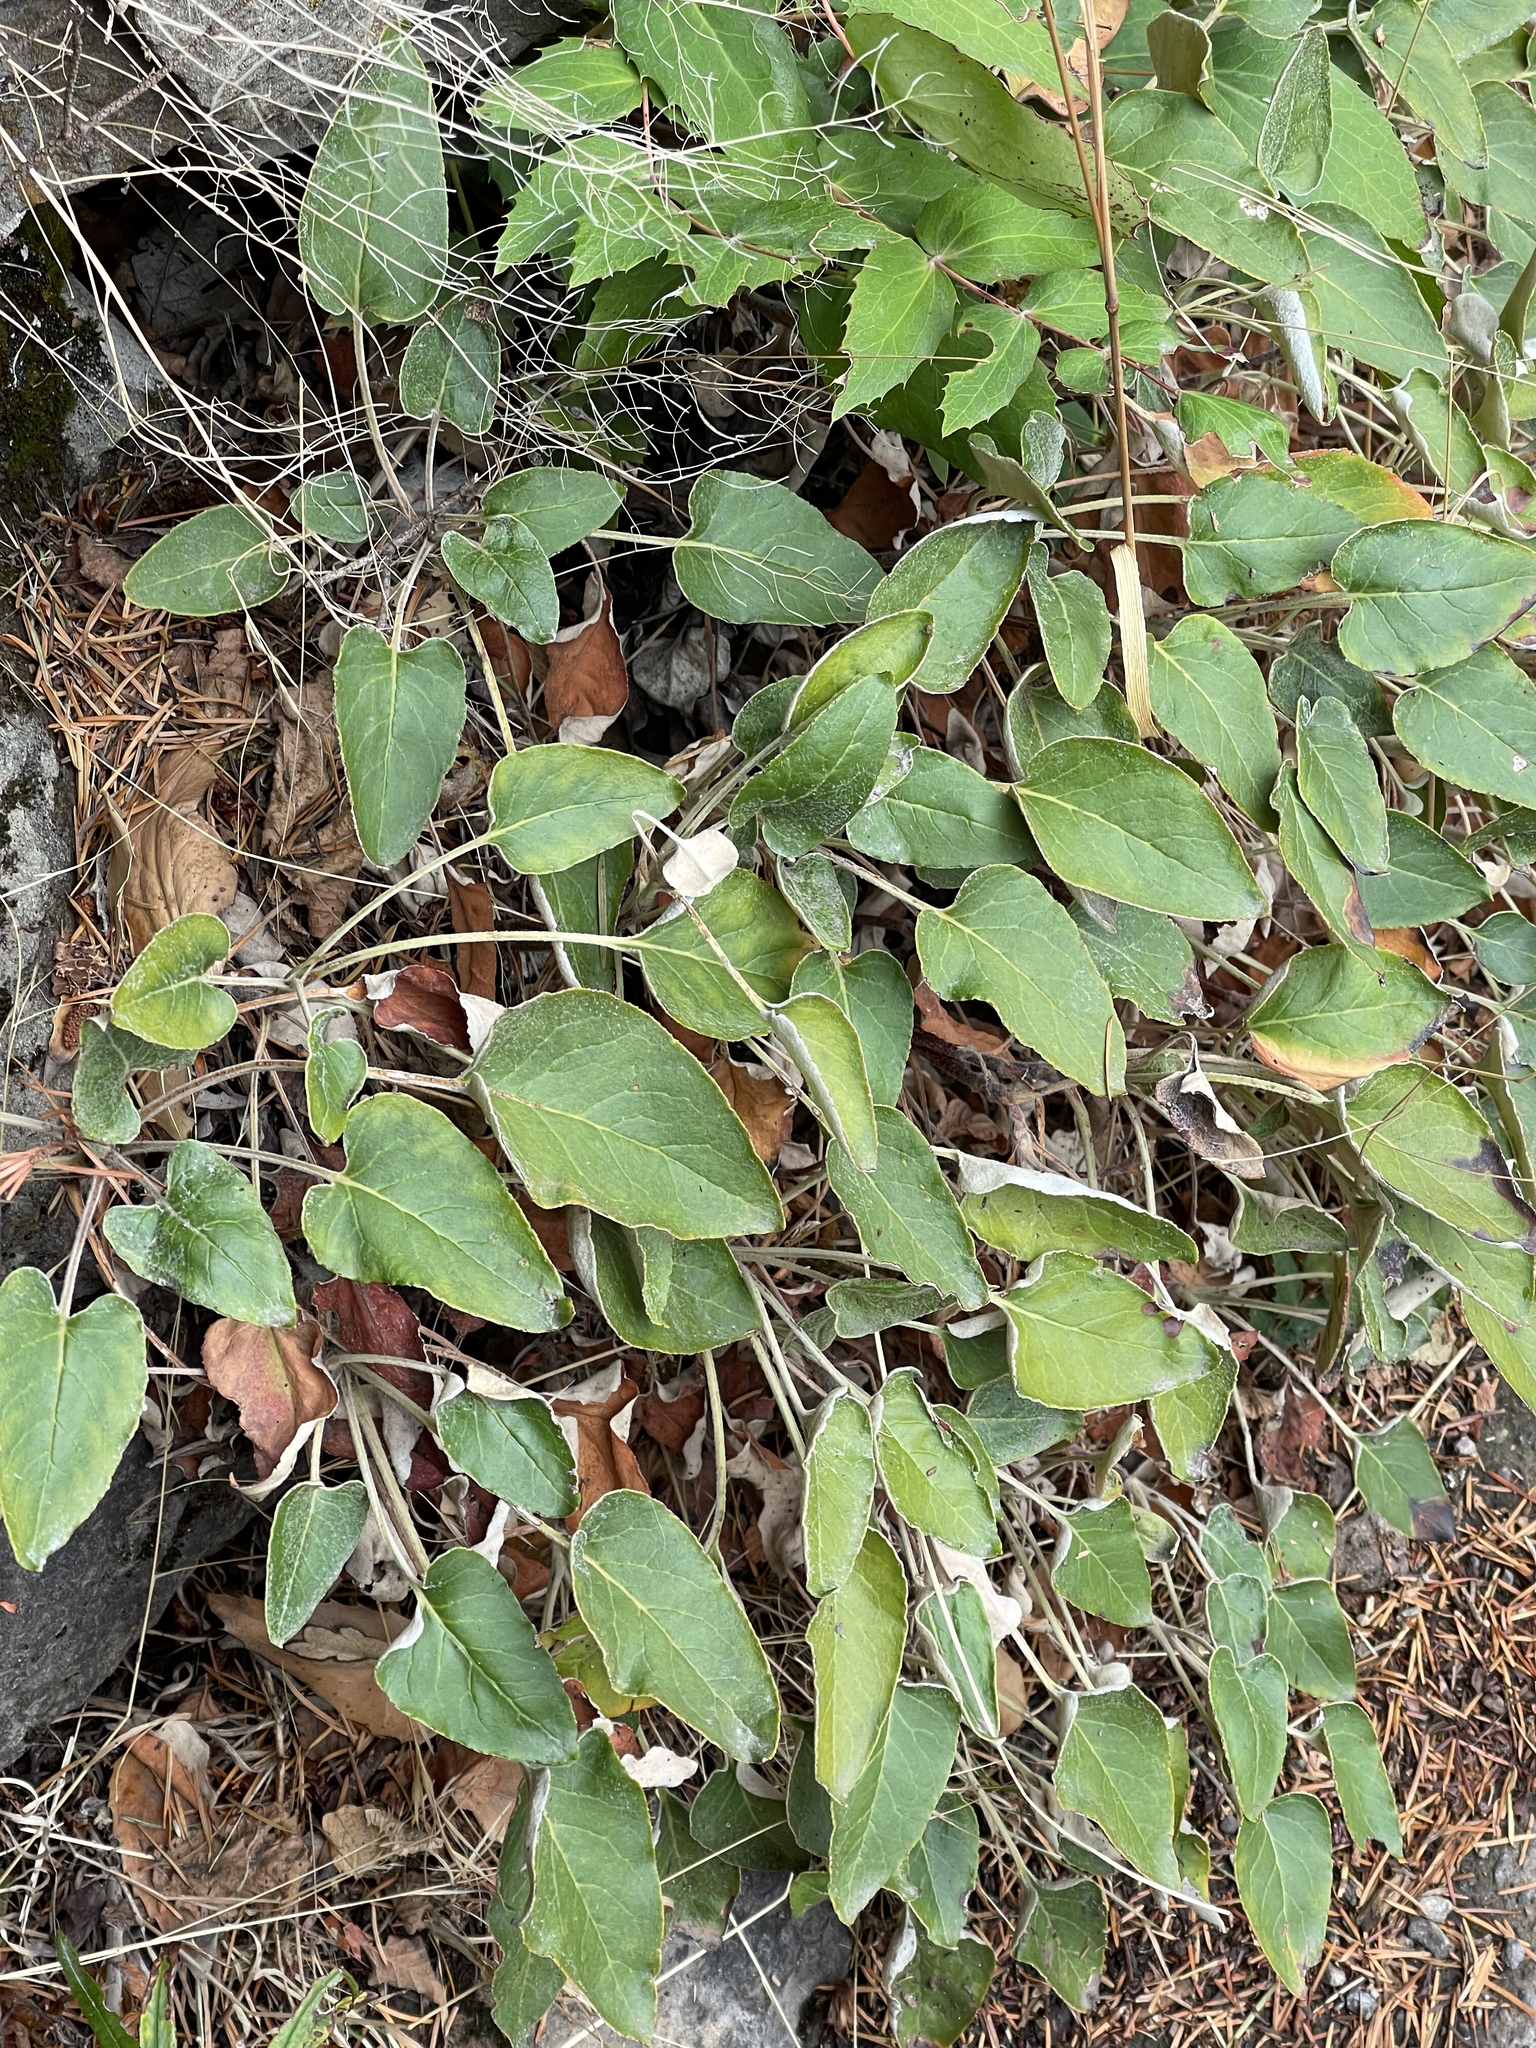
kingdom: Plantae
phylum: Tracheophyta
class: Magnoliopsida
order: Caryophyllales
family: Polygonaceae
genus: Eriogonum
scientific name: Eriogonum compositum
